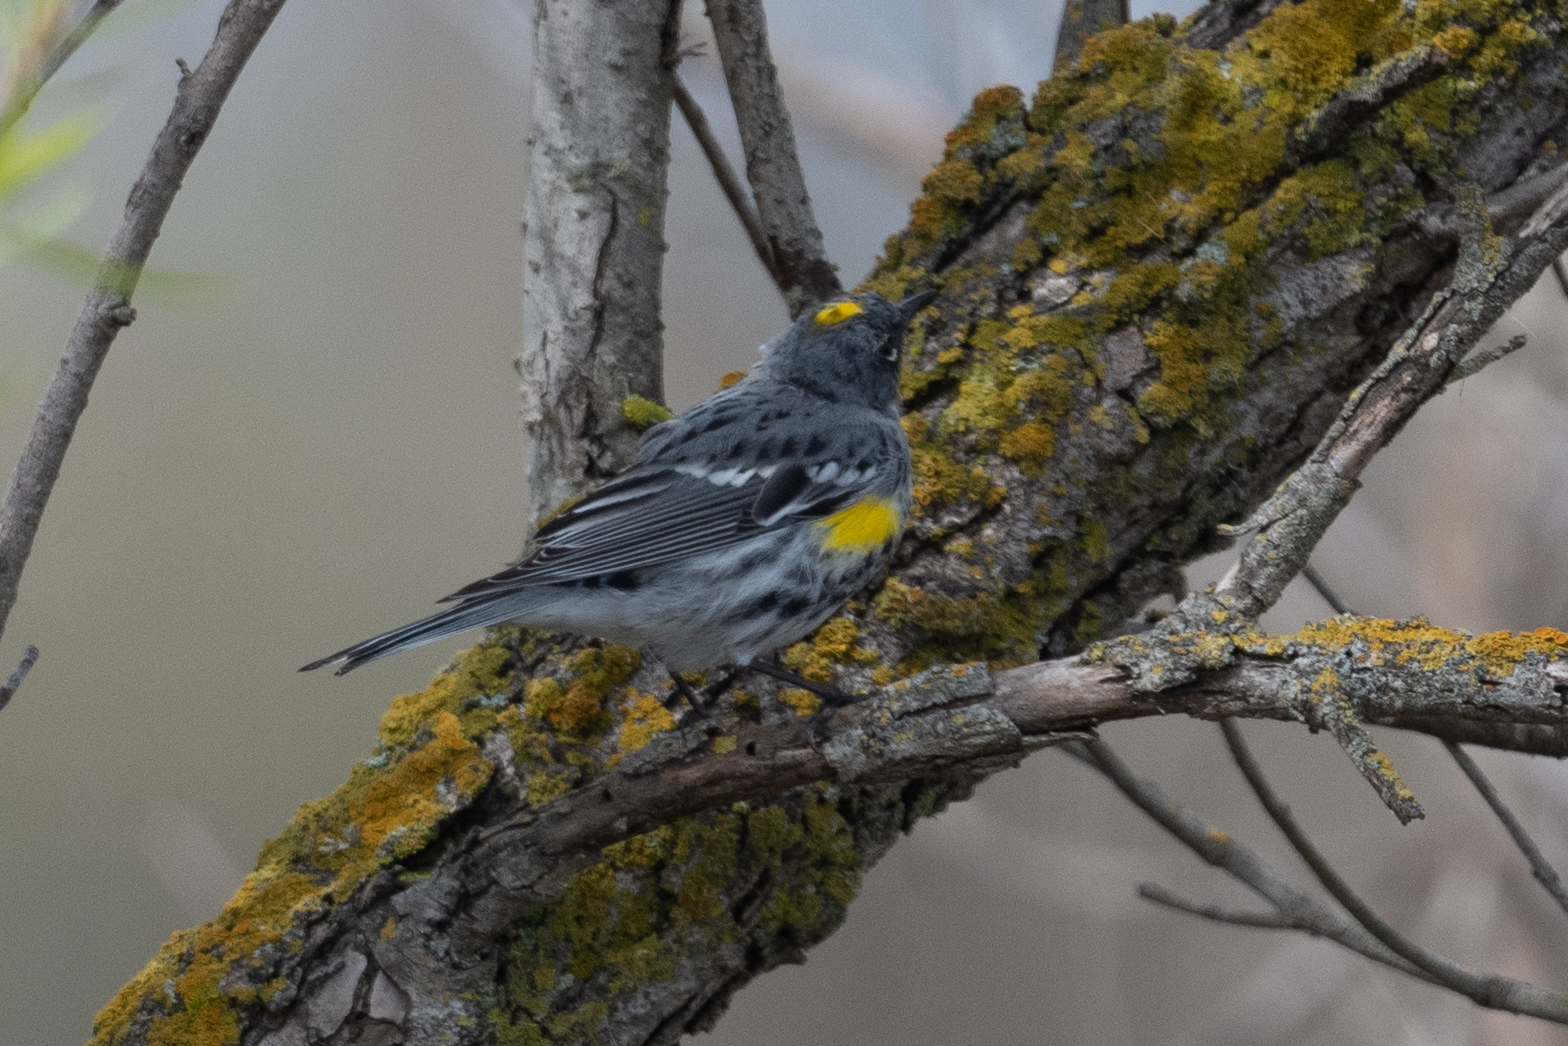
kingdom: Animalia
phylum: Chordata
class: Aves
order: Passeriformes
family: Parulidae
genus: Setophaga
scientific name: Setophaga coronata
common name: Myrtle warbler
